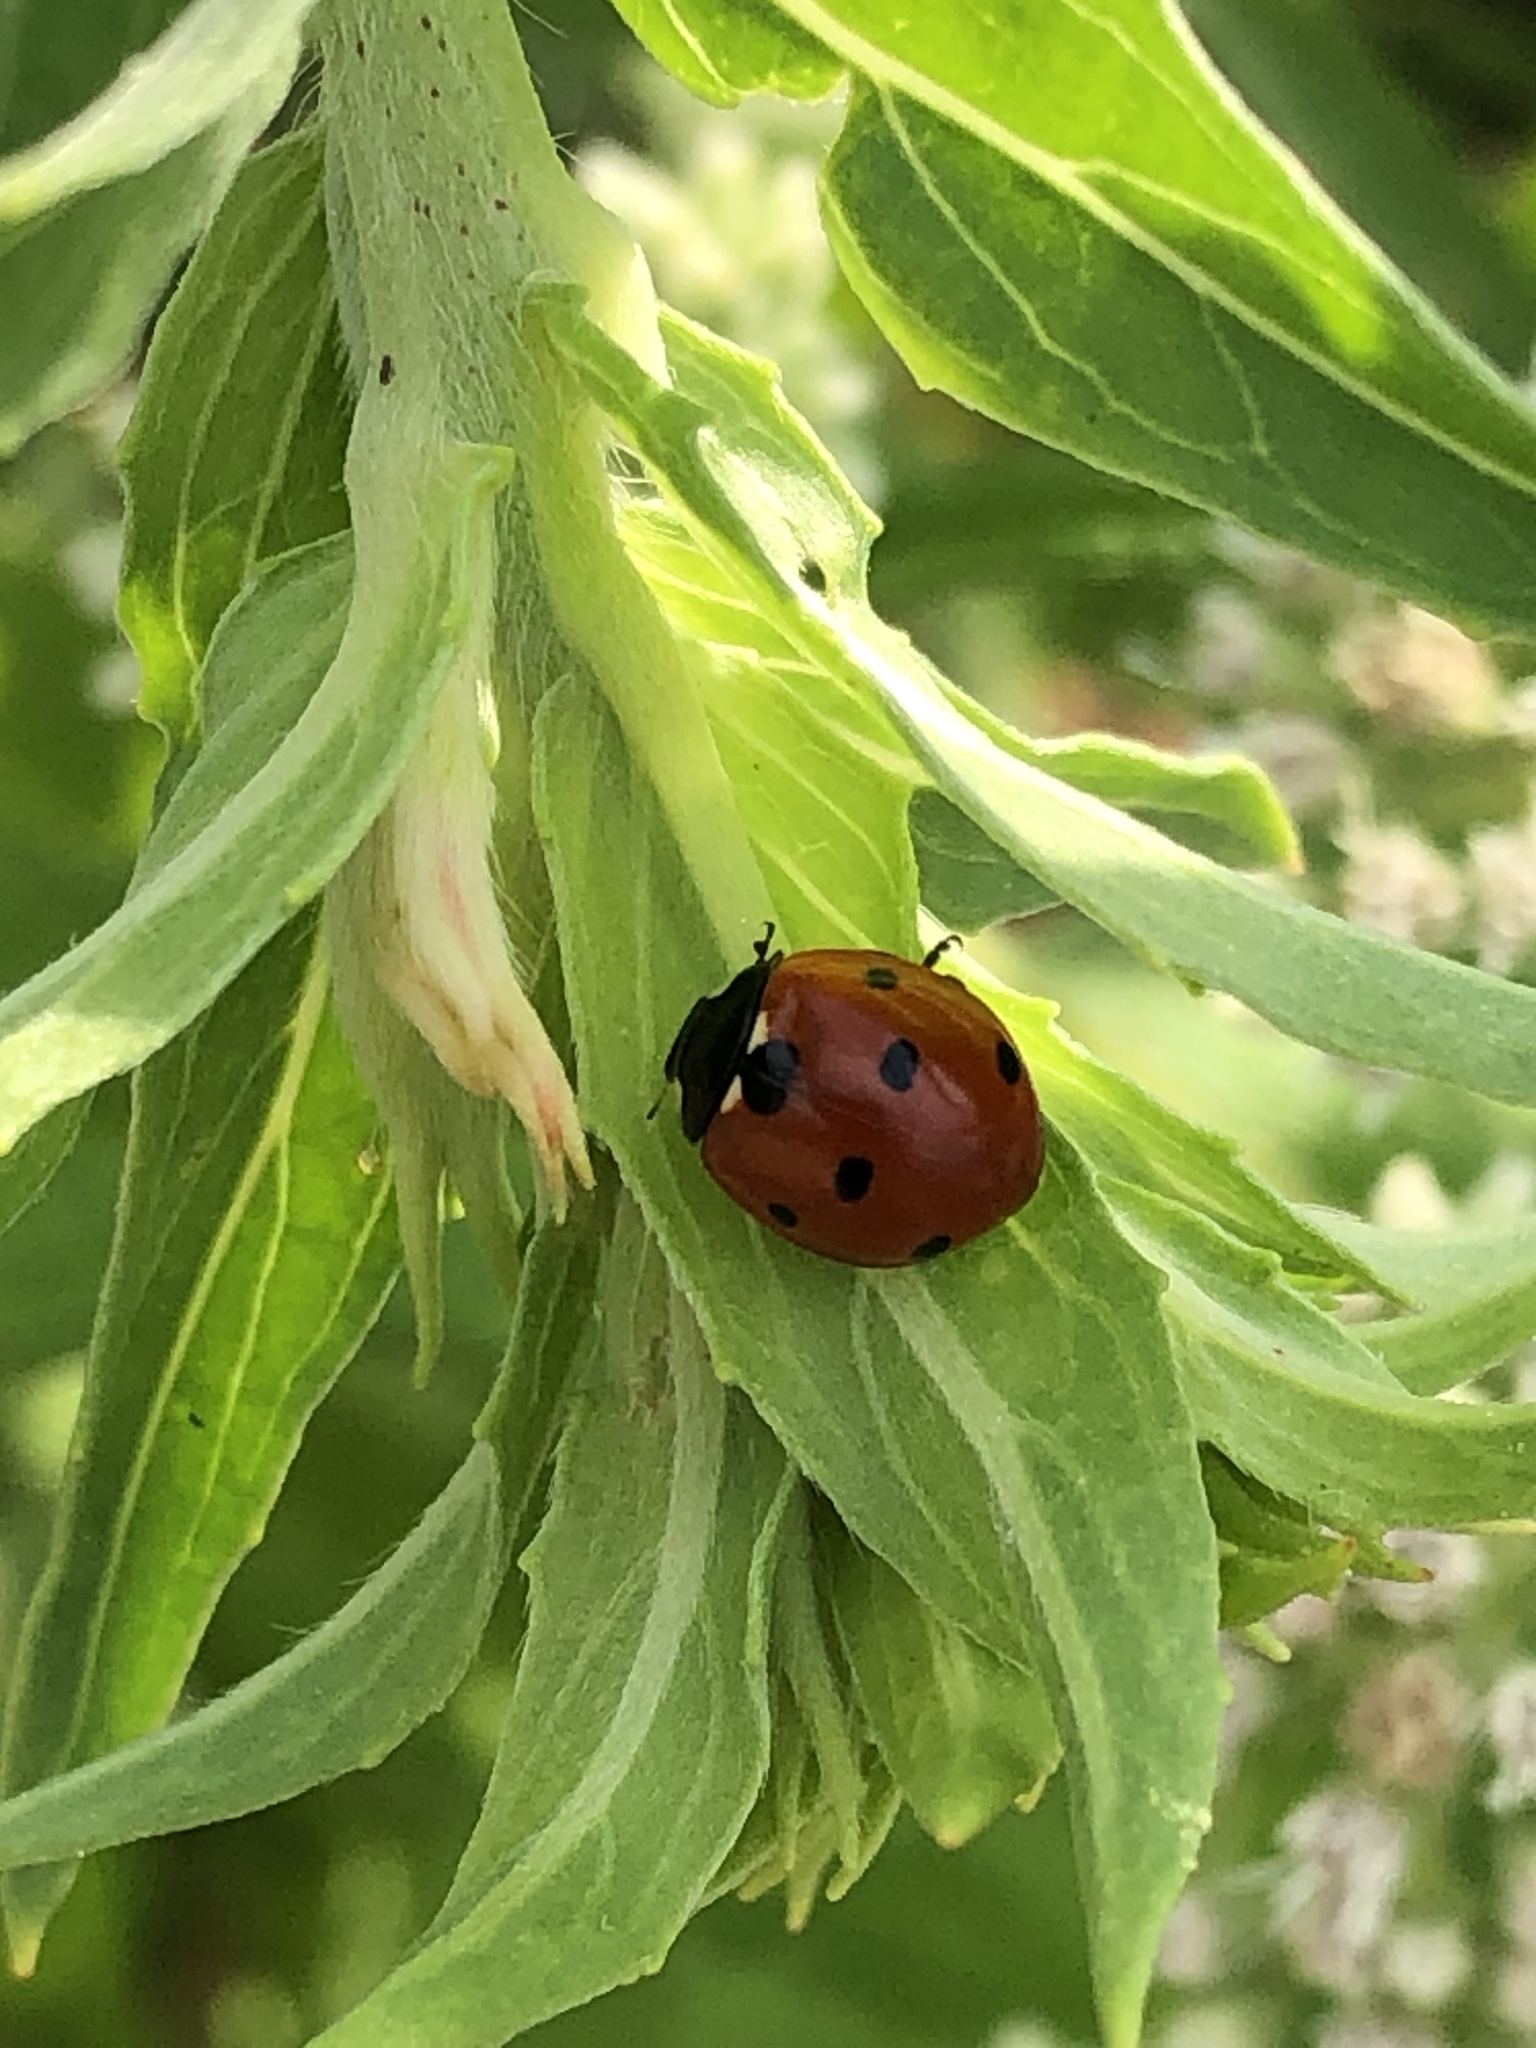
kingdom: Animalia
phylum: Arthropoda
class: Insecta
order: Coleoptera
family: Coccinellidae
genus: Coccinella
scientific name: Coccinella septempunctata
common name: Sevenspotted lady beetle
